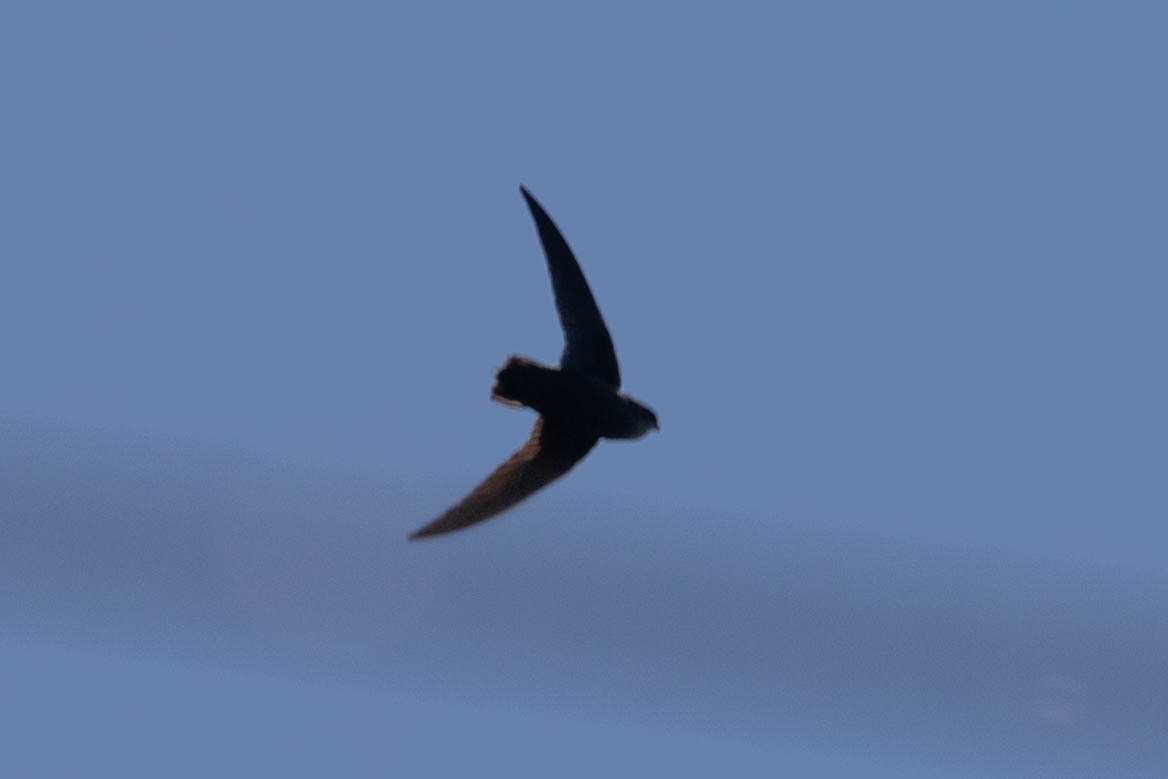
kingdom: Animalia
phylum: Chordata
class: Aves
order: Apodiformes
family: Apodidae
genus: Chaetura
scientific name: Chaetura pelagica
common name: Chimney swift
